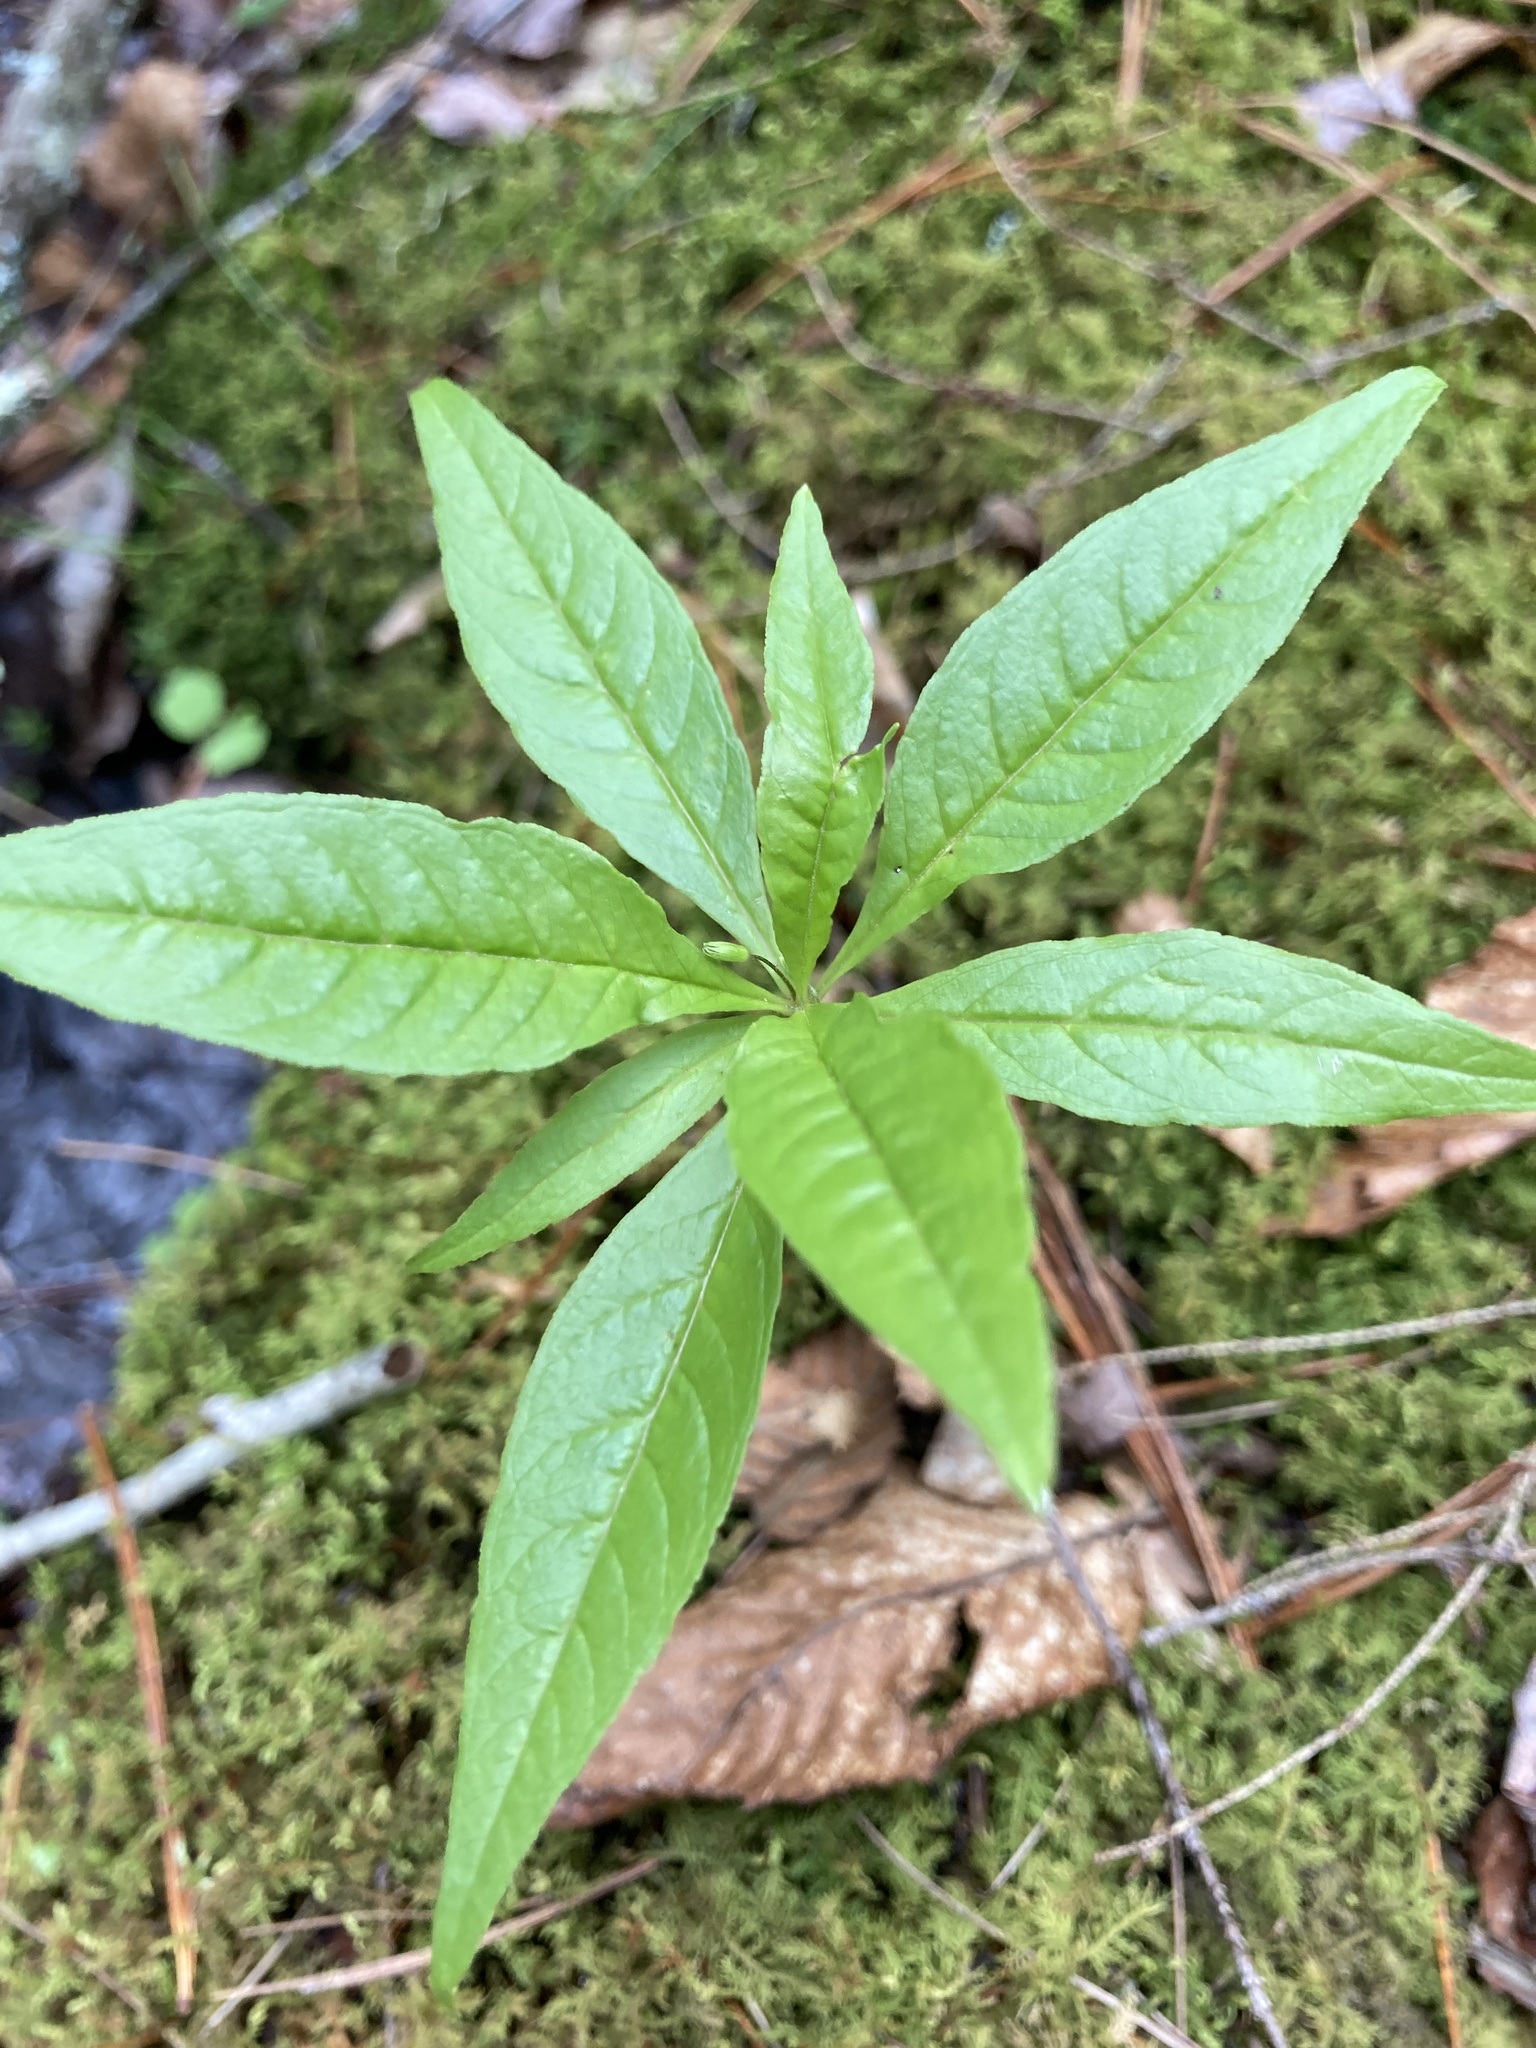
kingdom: Plantae
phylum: Tracheophyta
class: Magnoliopsida
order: Ericales
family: Primulaceae
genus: Lysimachia
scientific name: Lysimachia borealis
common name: American starflower
